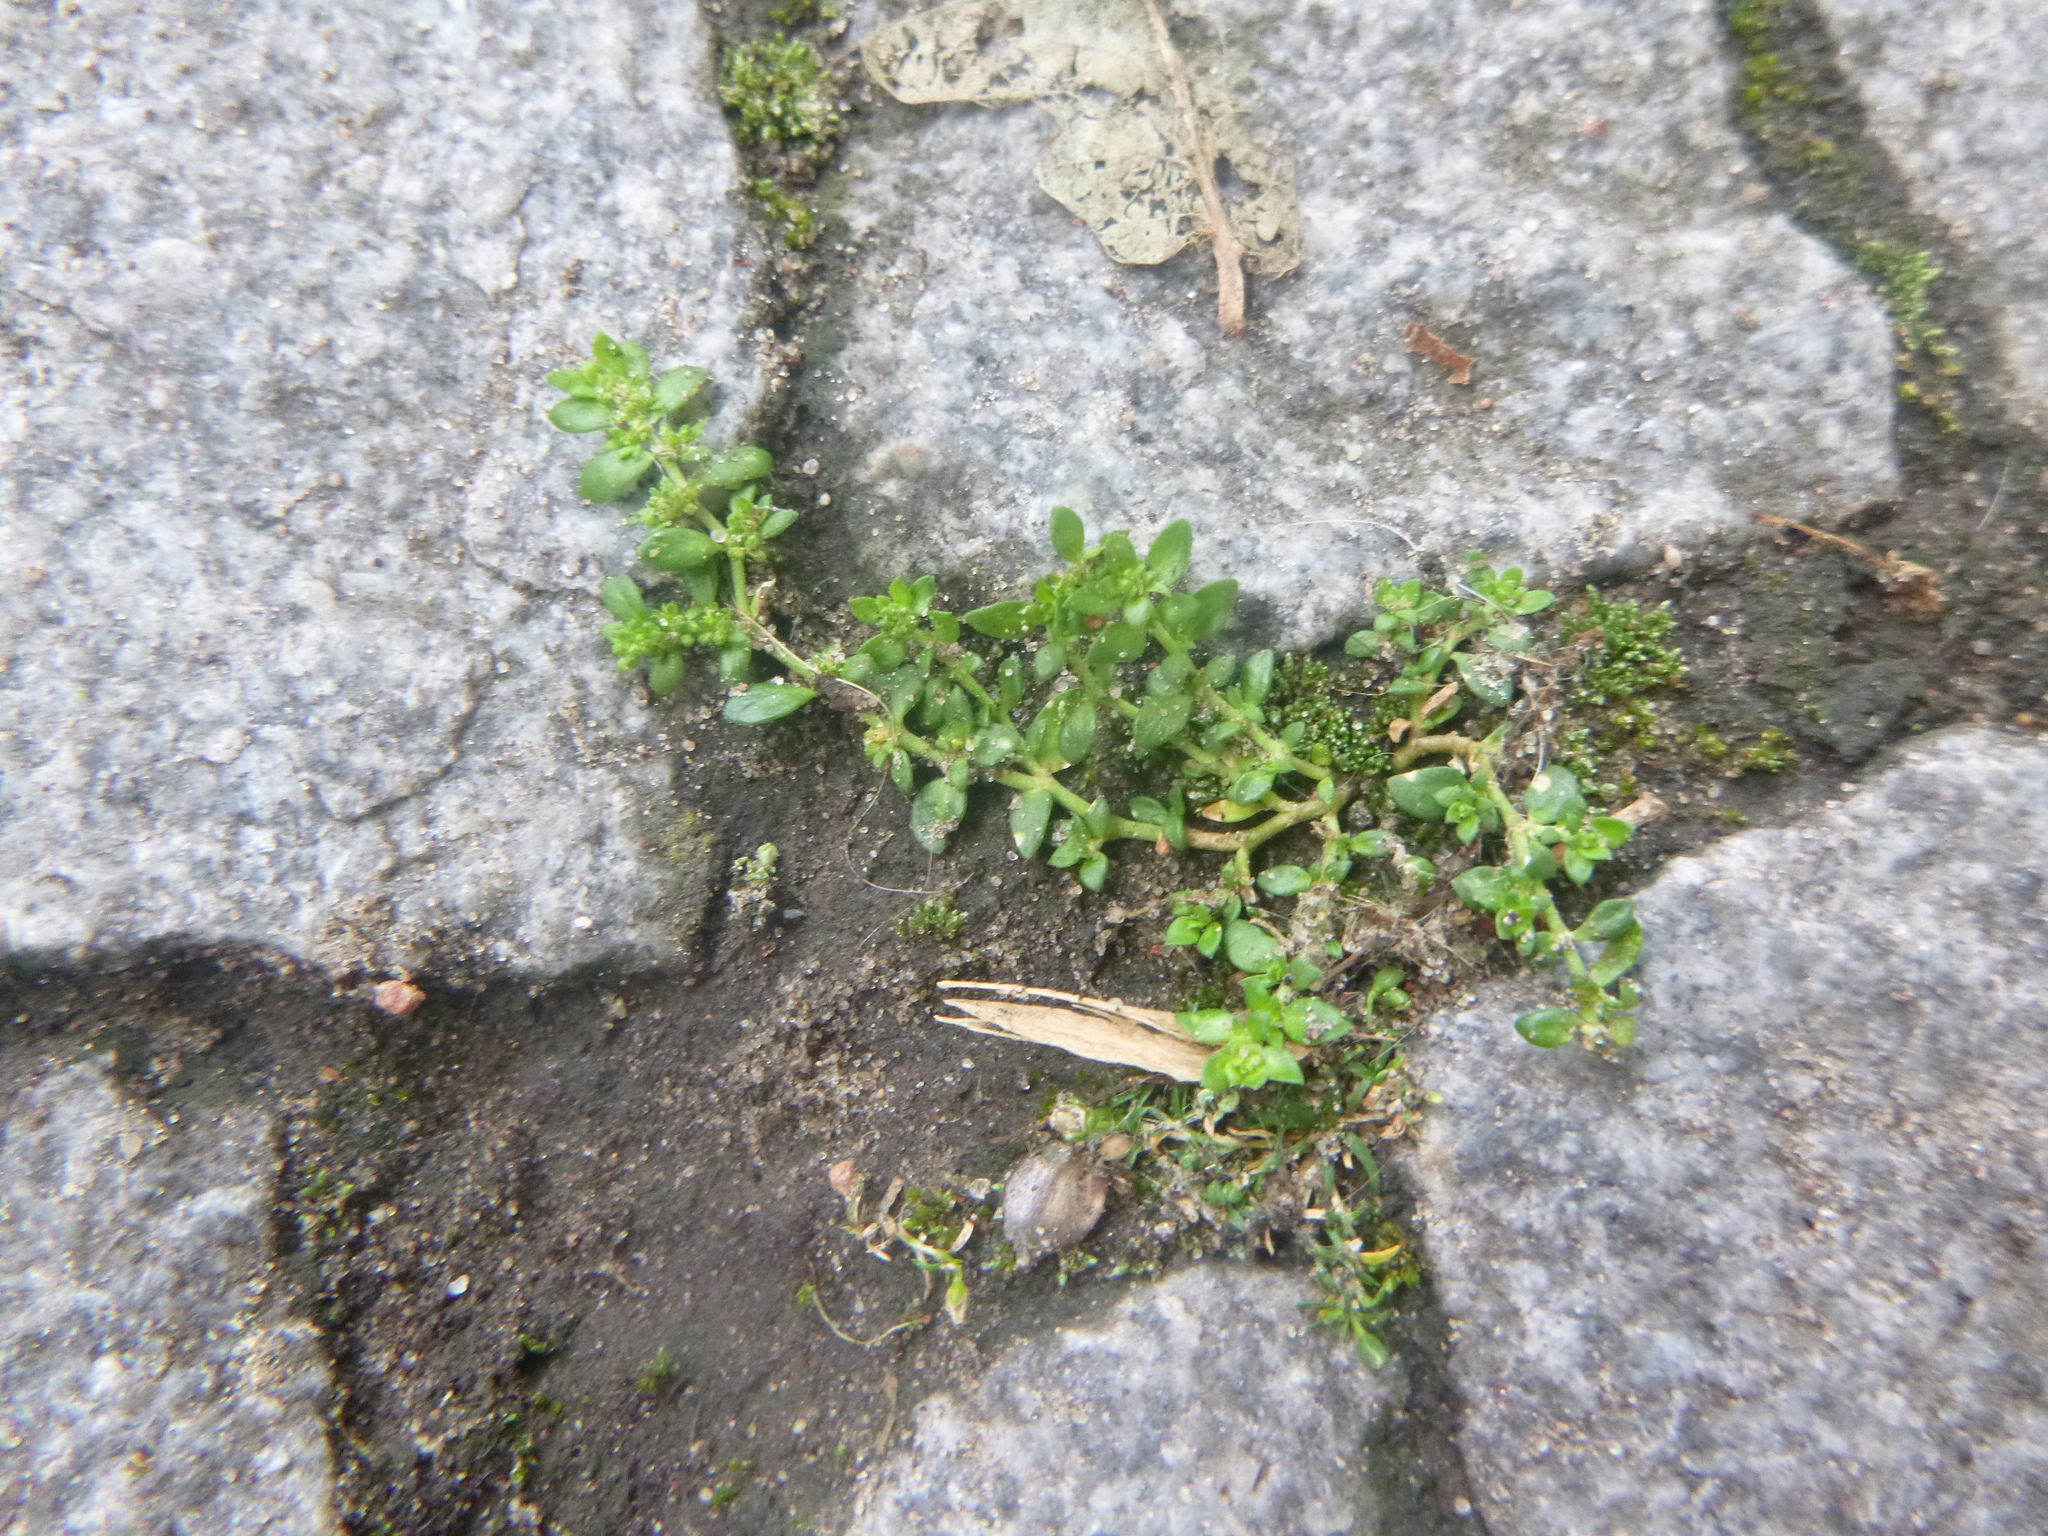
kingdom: Plantae
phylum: Tracheophyta
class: Magnoliopsida
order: Caryophyllales
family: Caryophyllaceae
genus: Herniaria
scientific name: Herniaria glabra
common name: Smooth rupturewort
